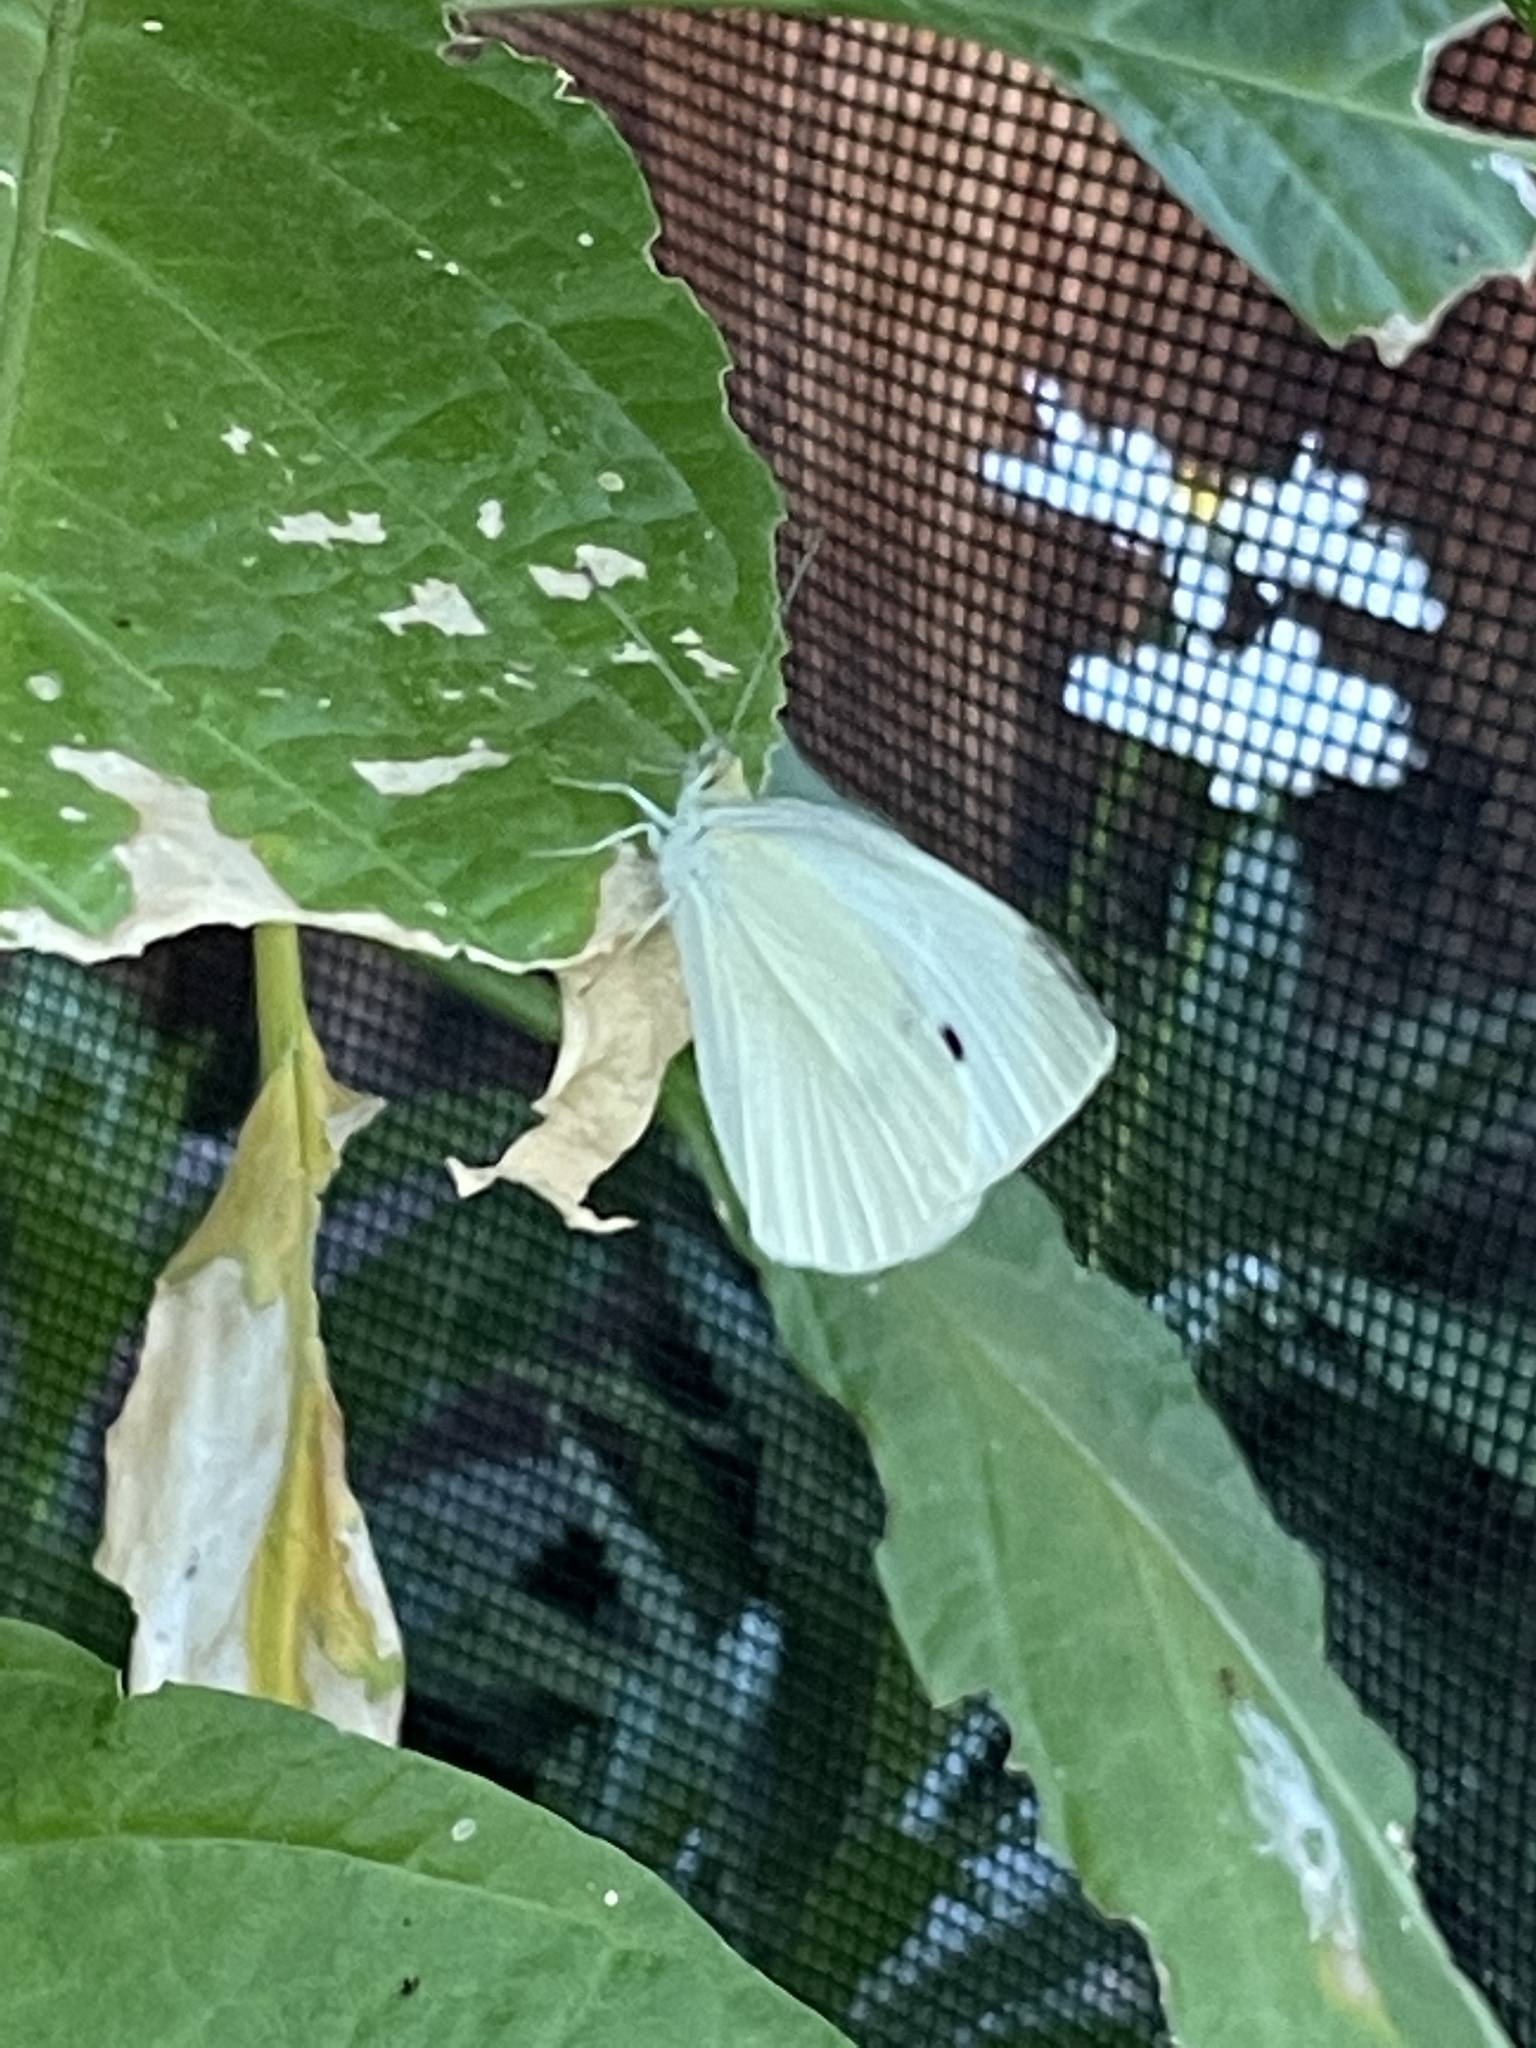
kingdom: Animalia
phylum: Arthropoda
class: Insecta
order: Lepidoptera
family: Pieridae
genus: Pieris
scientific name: Pieris rapae
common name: Small white
